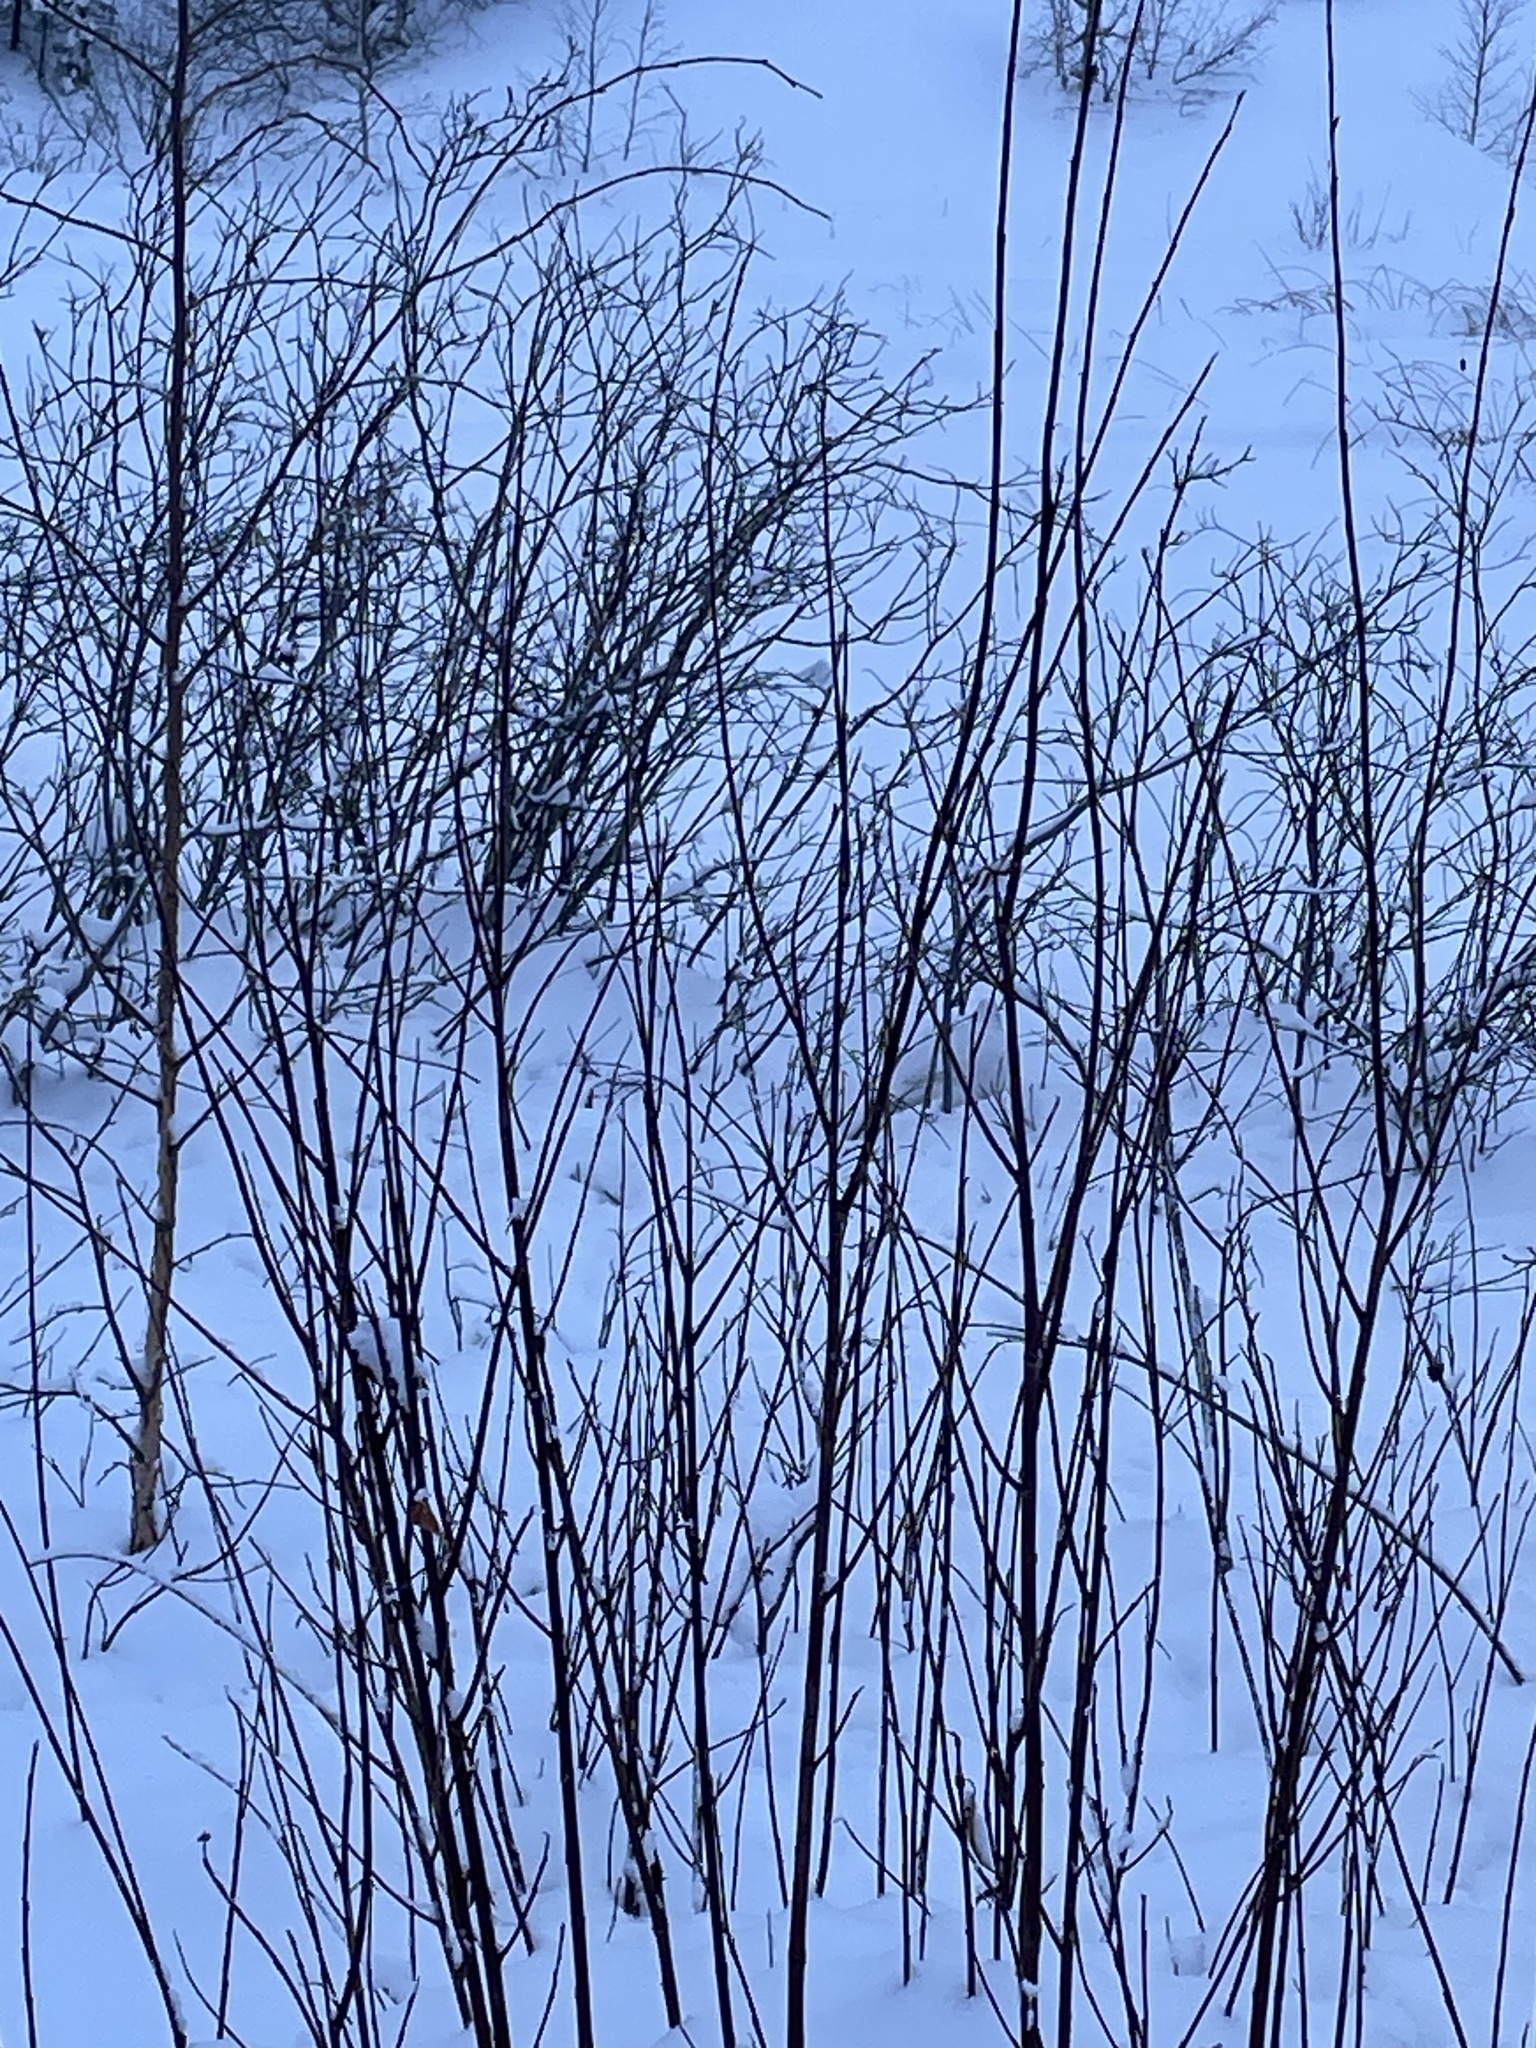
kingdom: Animalia
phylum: Chordata
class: Aves
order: Galliformes
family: Phasianidae
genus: Lagopus
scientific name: Lagopus lagopus
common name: Willow ptarmigan
